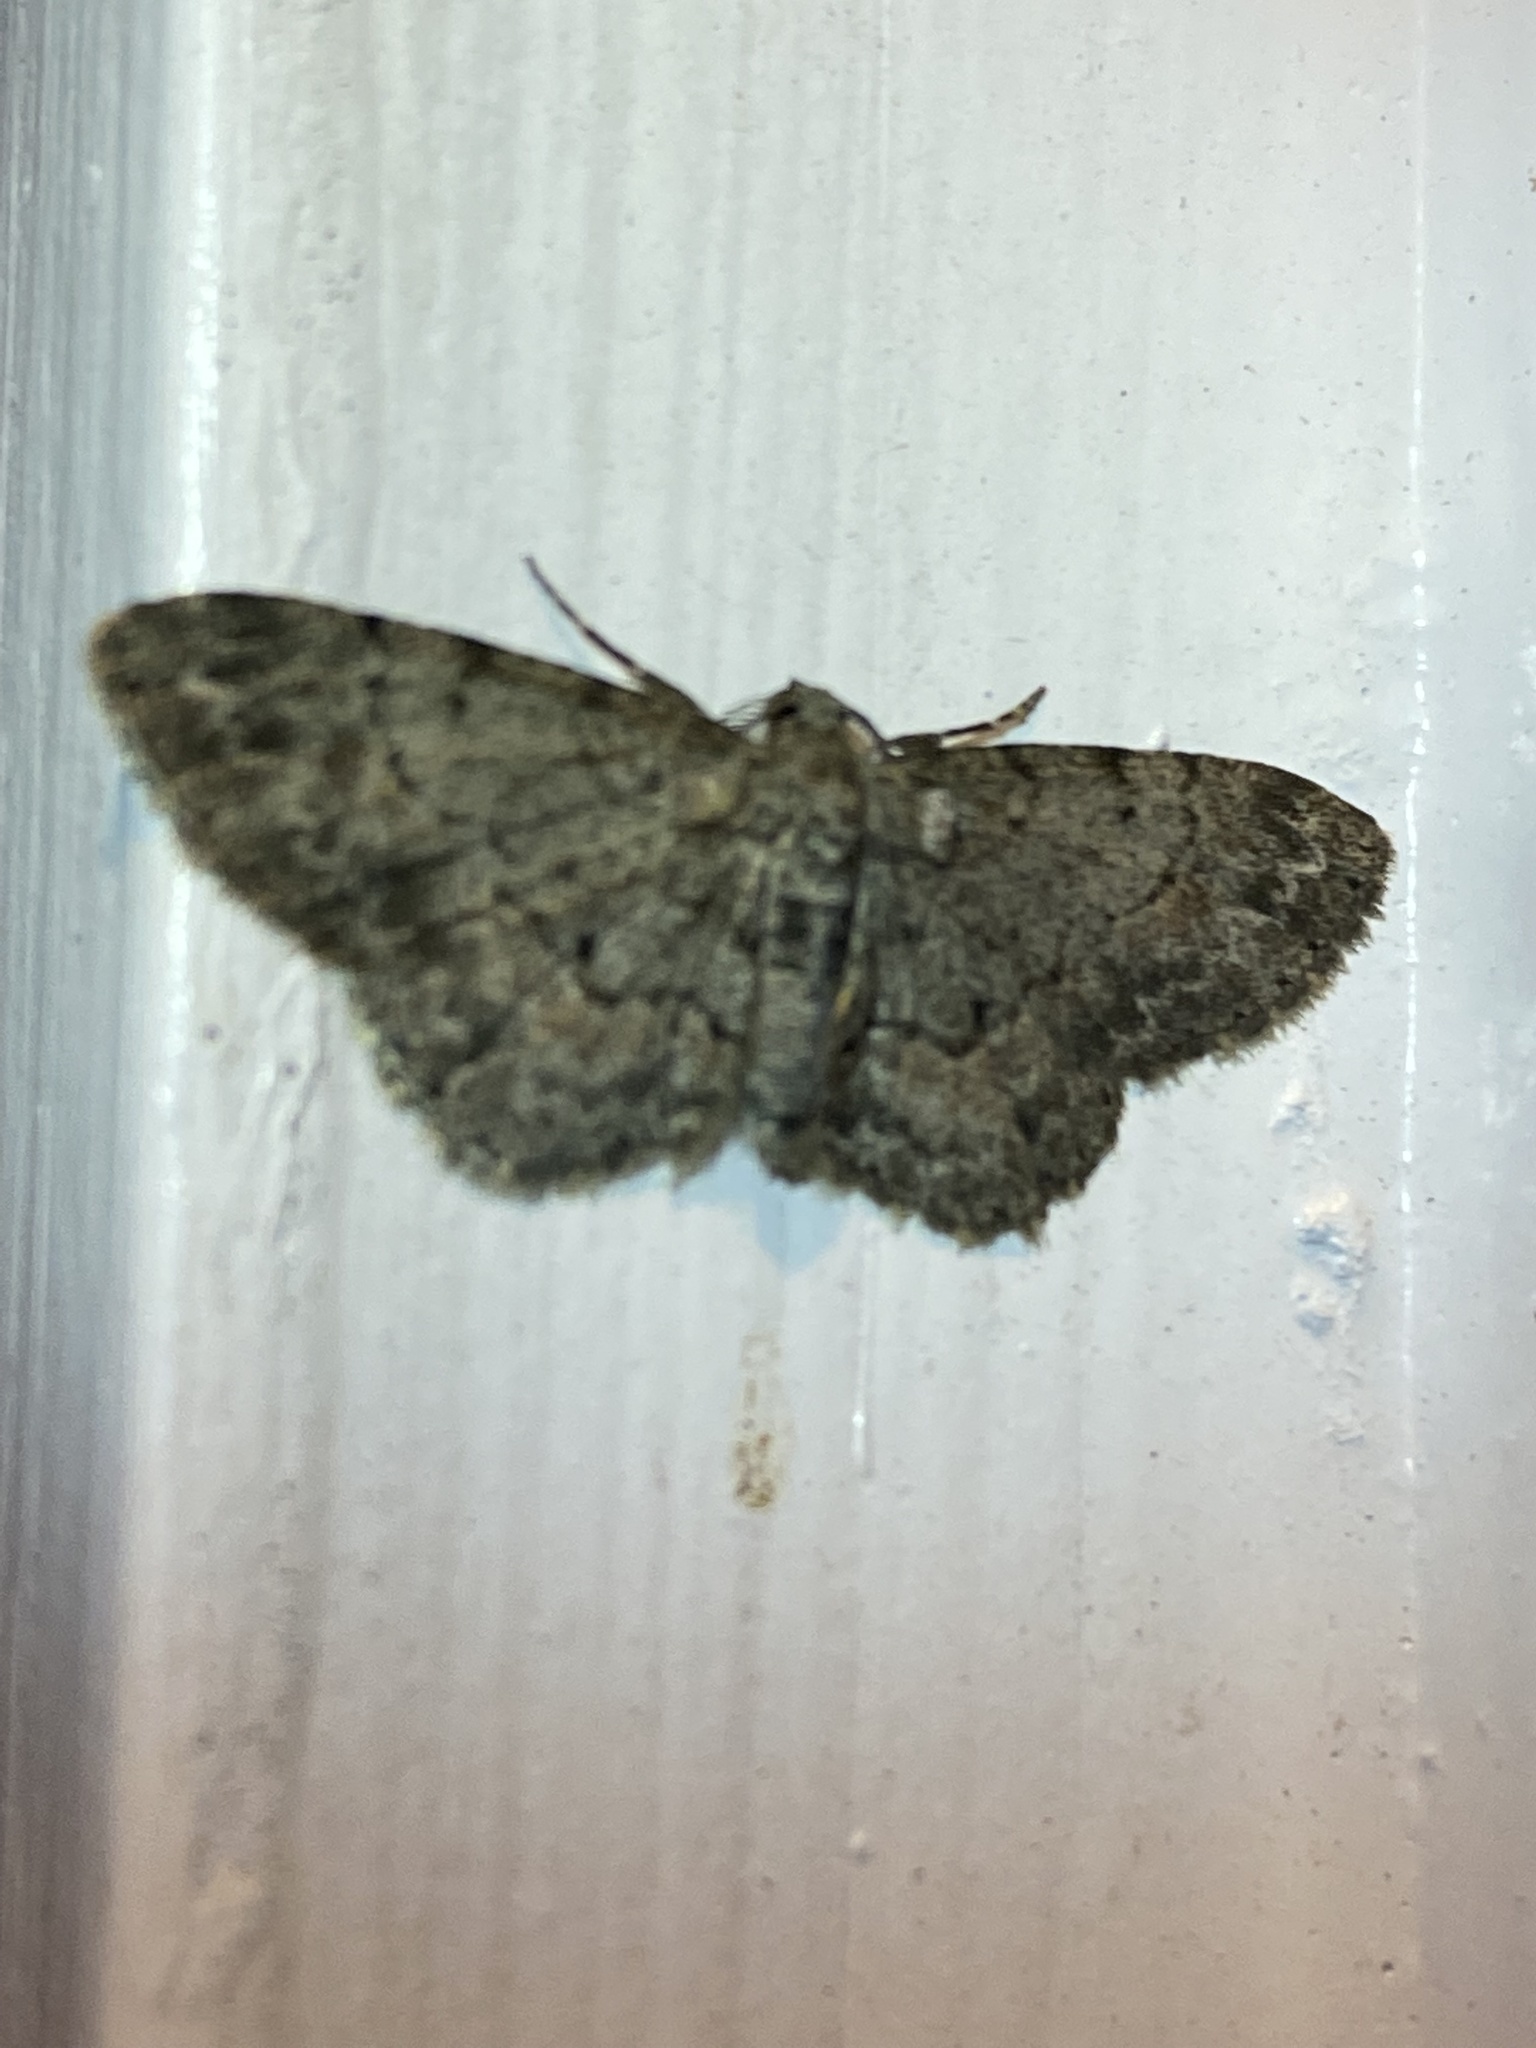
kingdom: Animalia
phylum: Arthropoda
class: Insecta
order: Lepidoptera
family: Geometridae
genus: Glenoides
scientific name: Glenoides texanaria
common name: Texas gray
